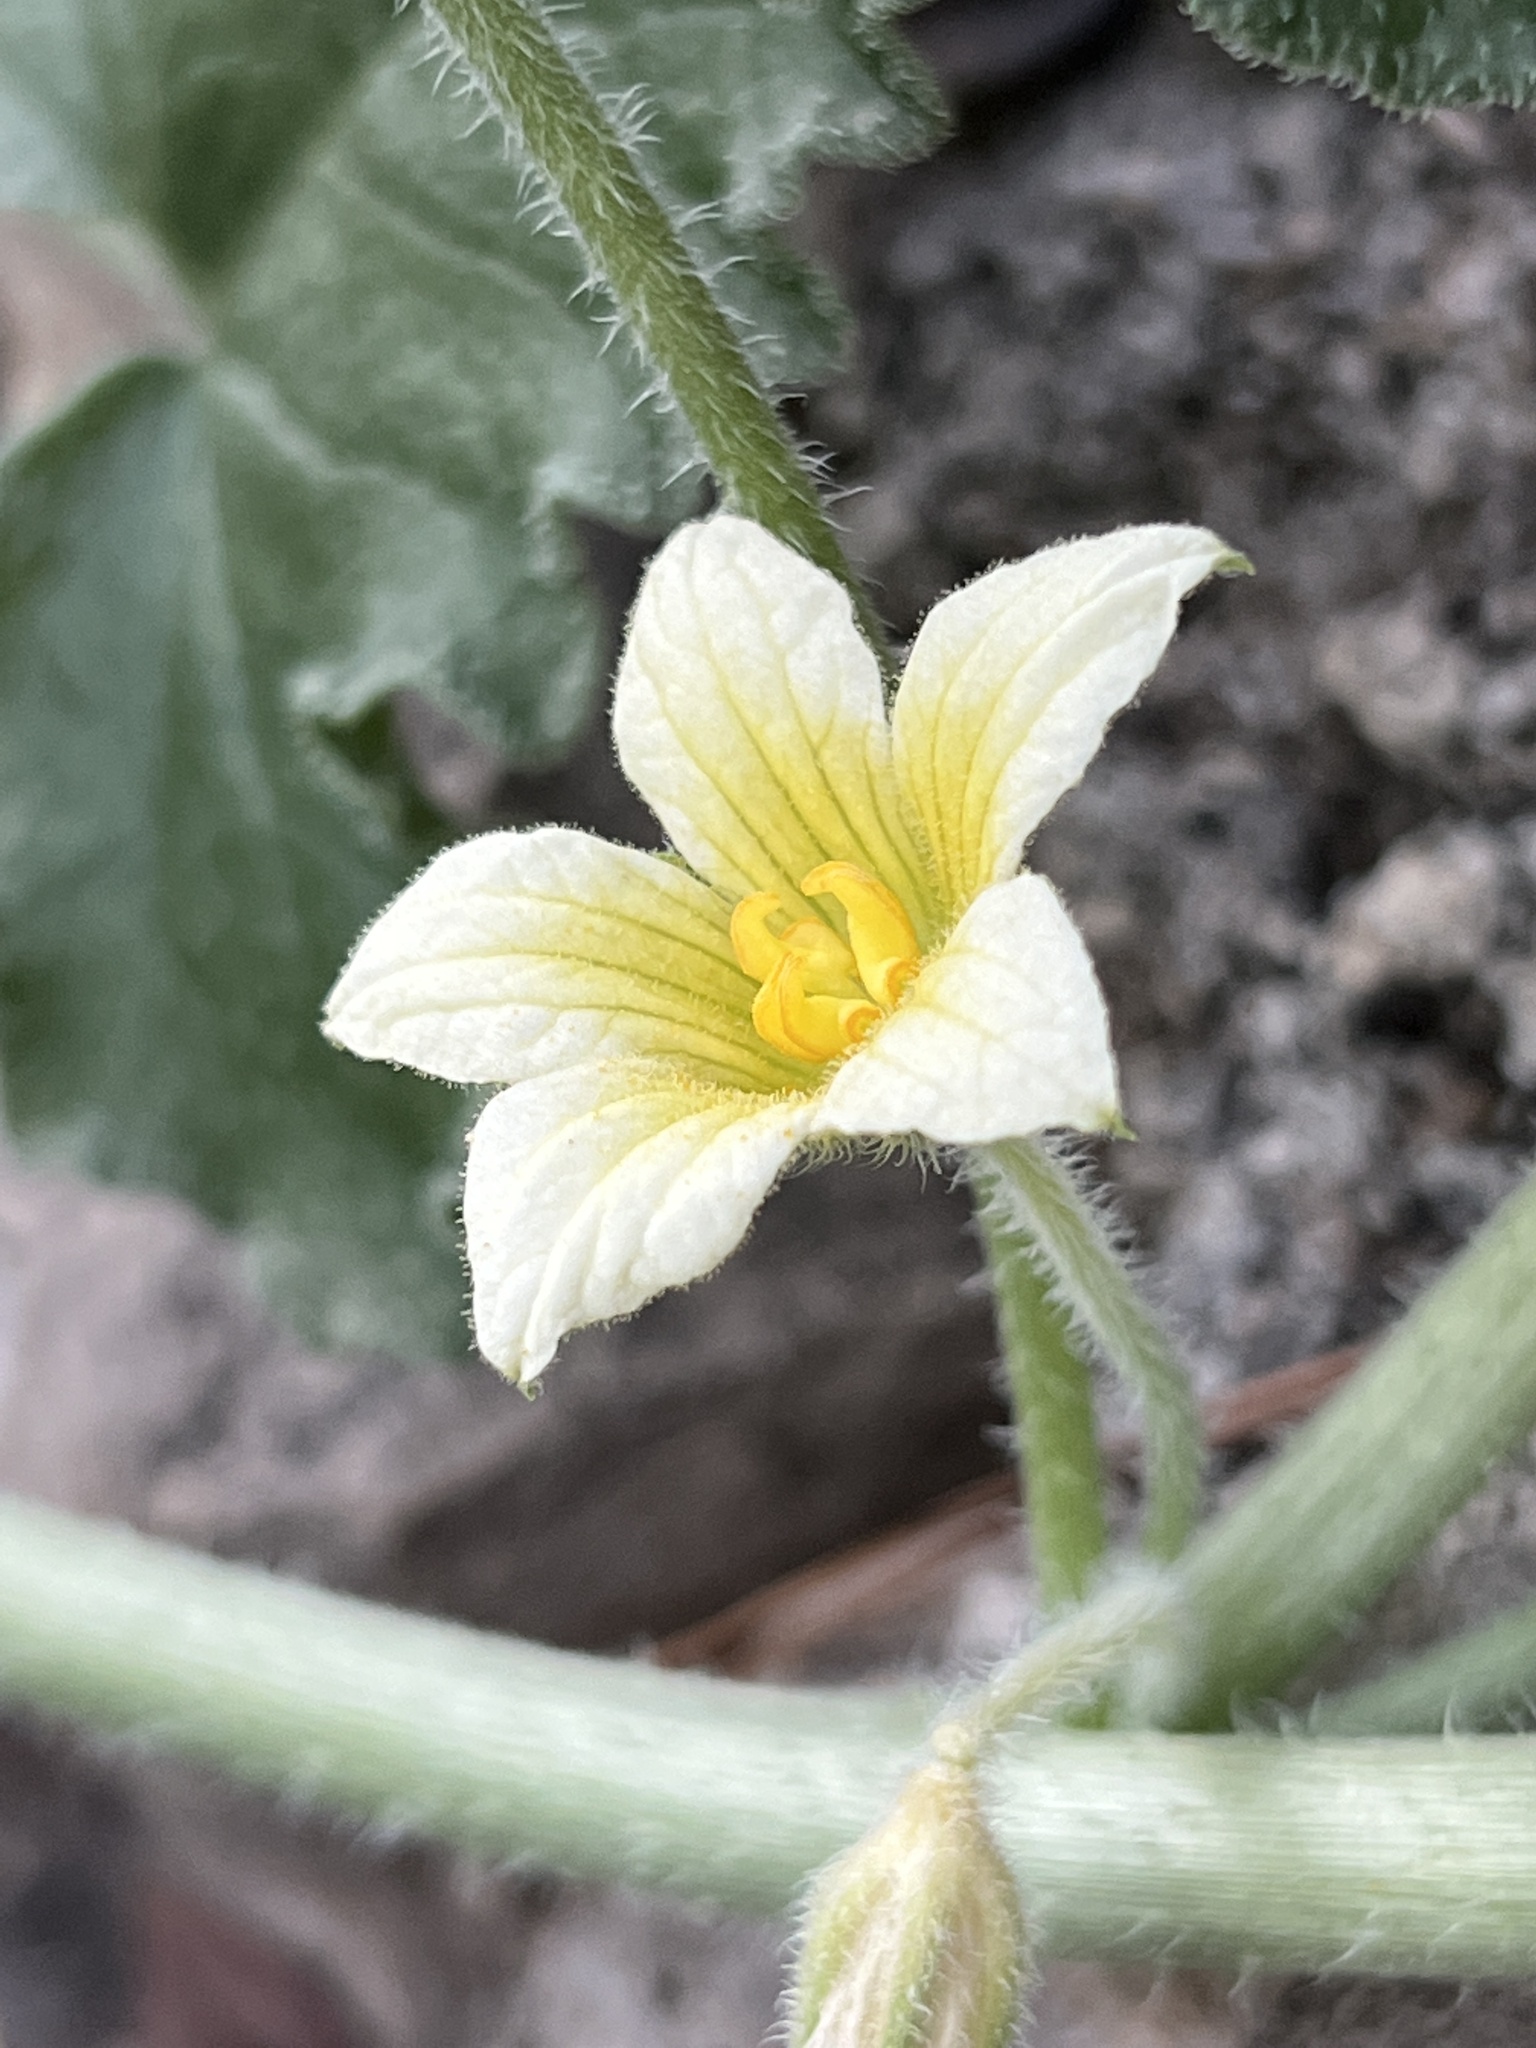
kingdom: Plantae
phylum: Tracheophyta
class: Magnoliopsida
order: Cucurbitales
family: Cucurbitaceae
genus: Ecballium
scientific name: Ecballium elaterium
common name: Squirting cucumber
